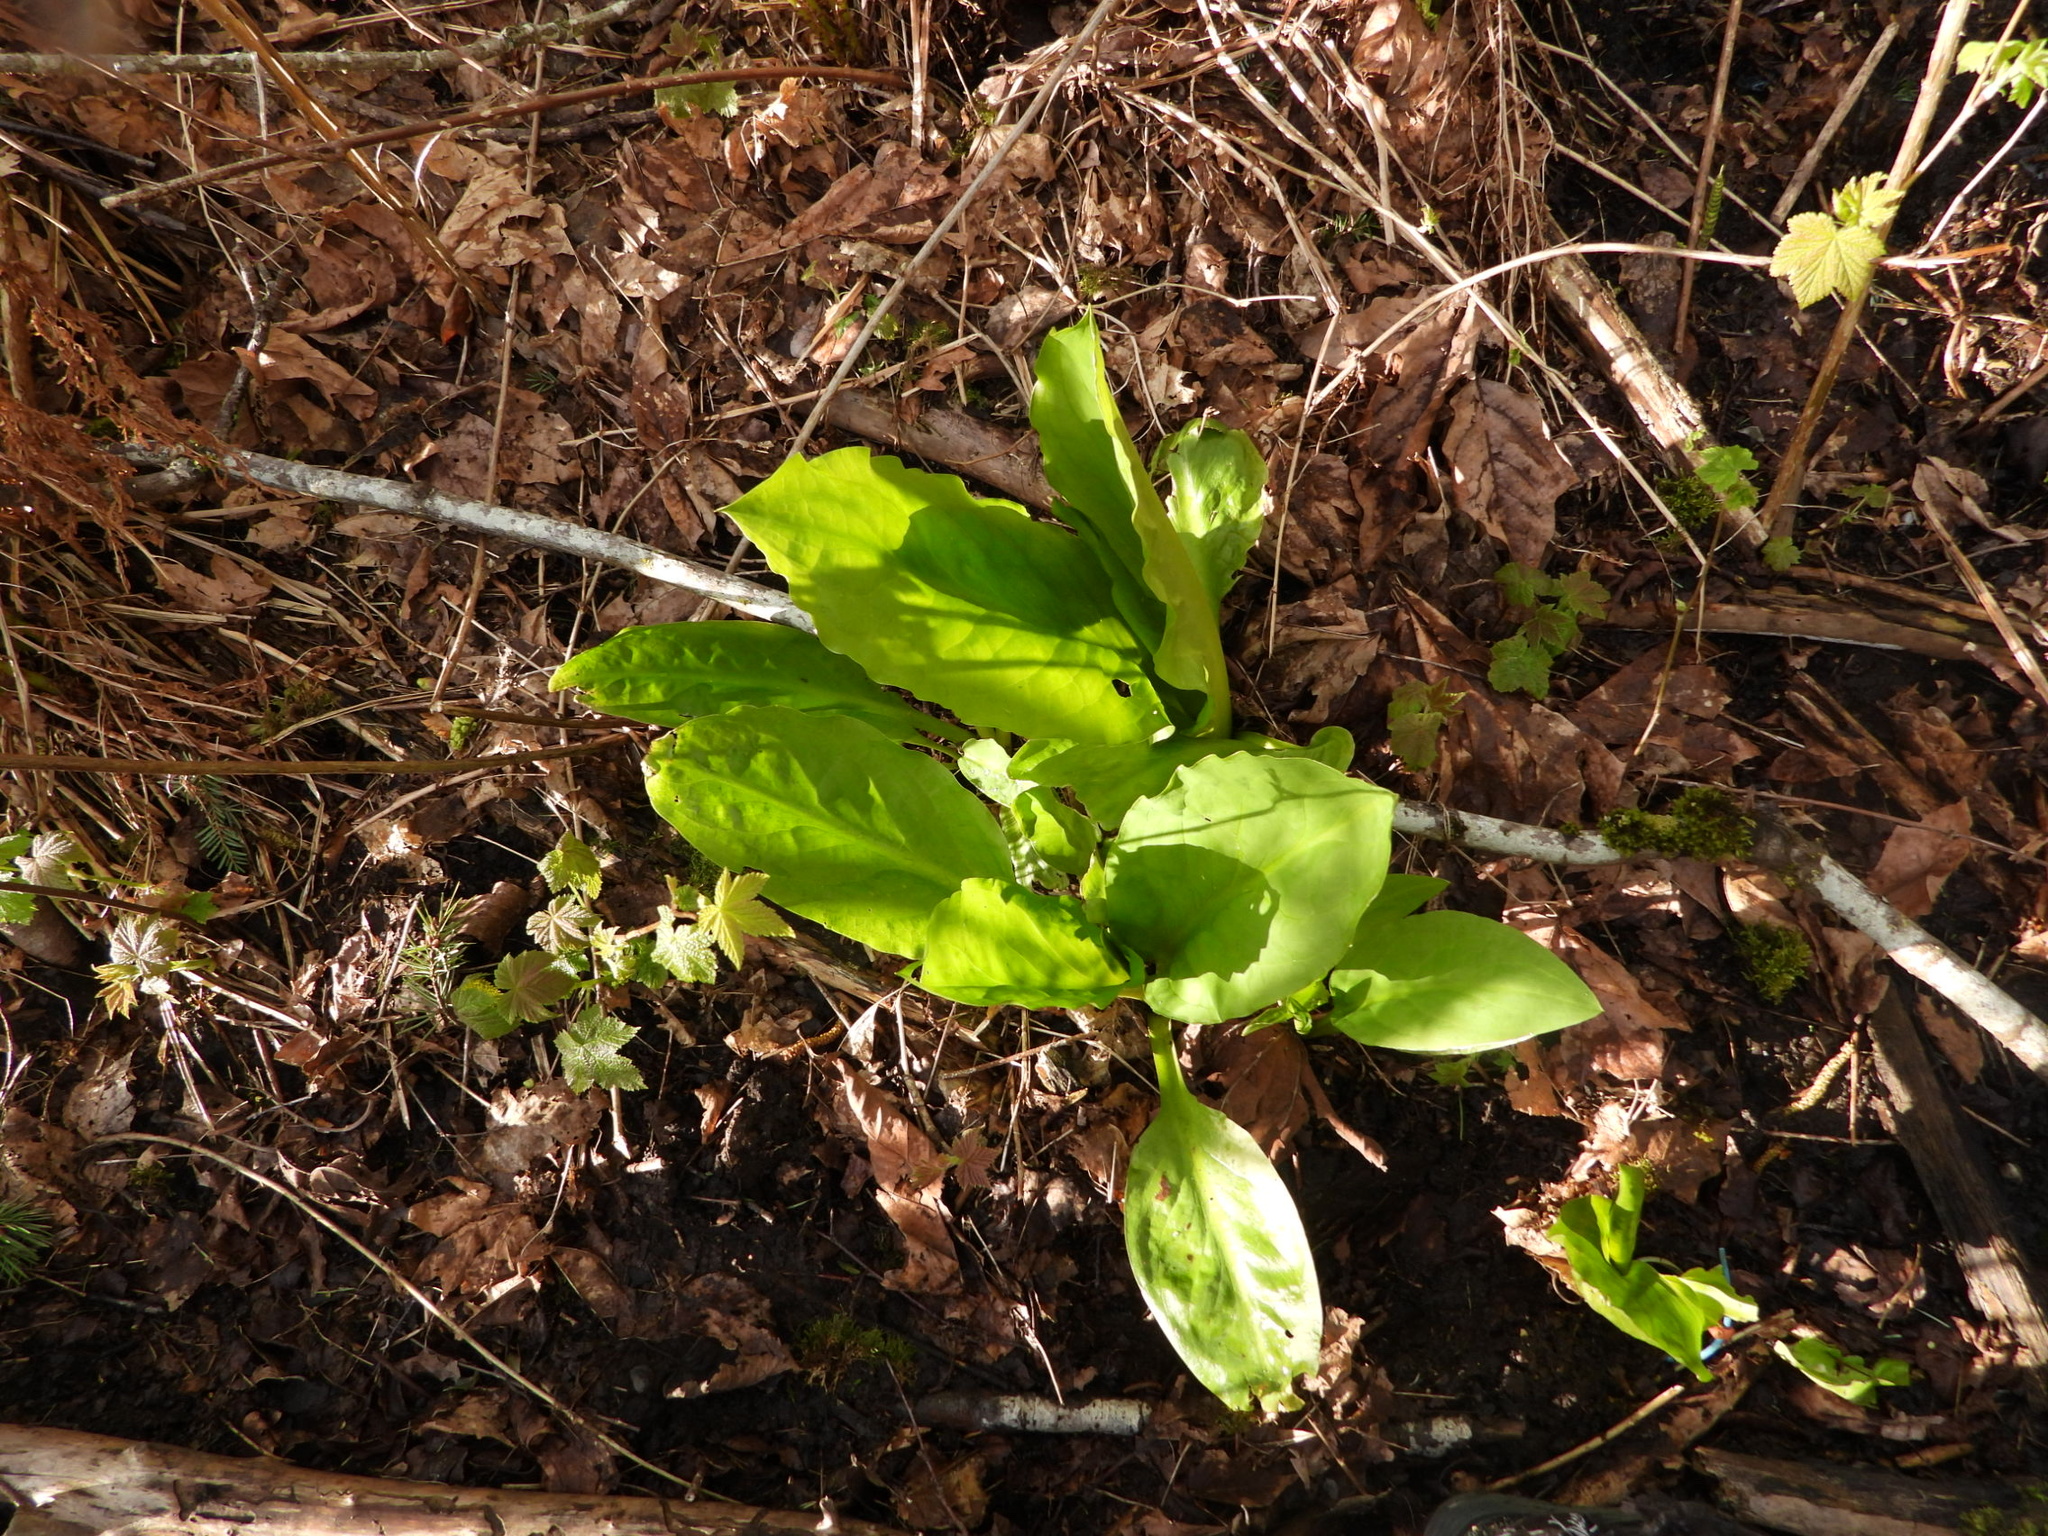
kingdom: Plantae
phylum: Tracheophyta
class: Liliopsida
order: Alismatales
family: Araceae
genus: Lysichiton
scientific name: Lysichiton americanus
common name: American skunk cabbage
